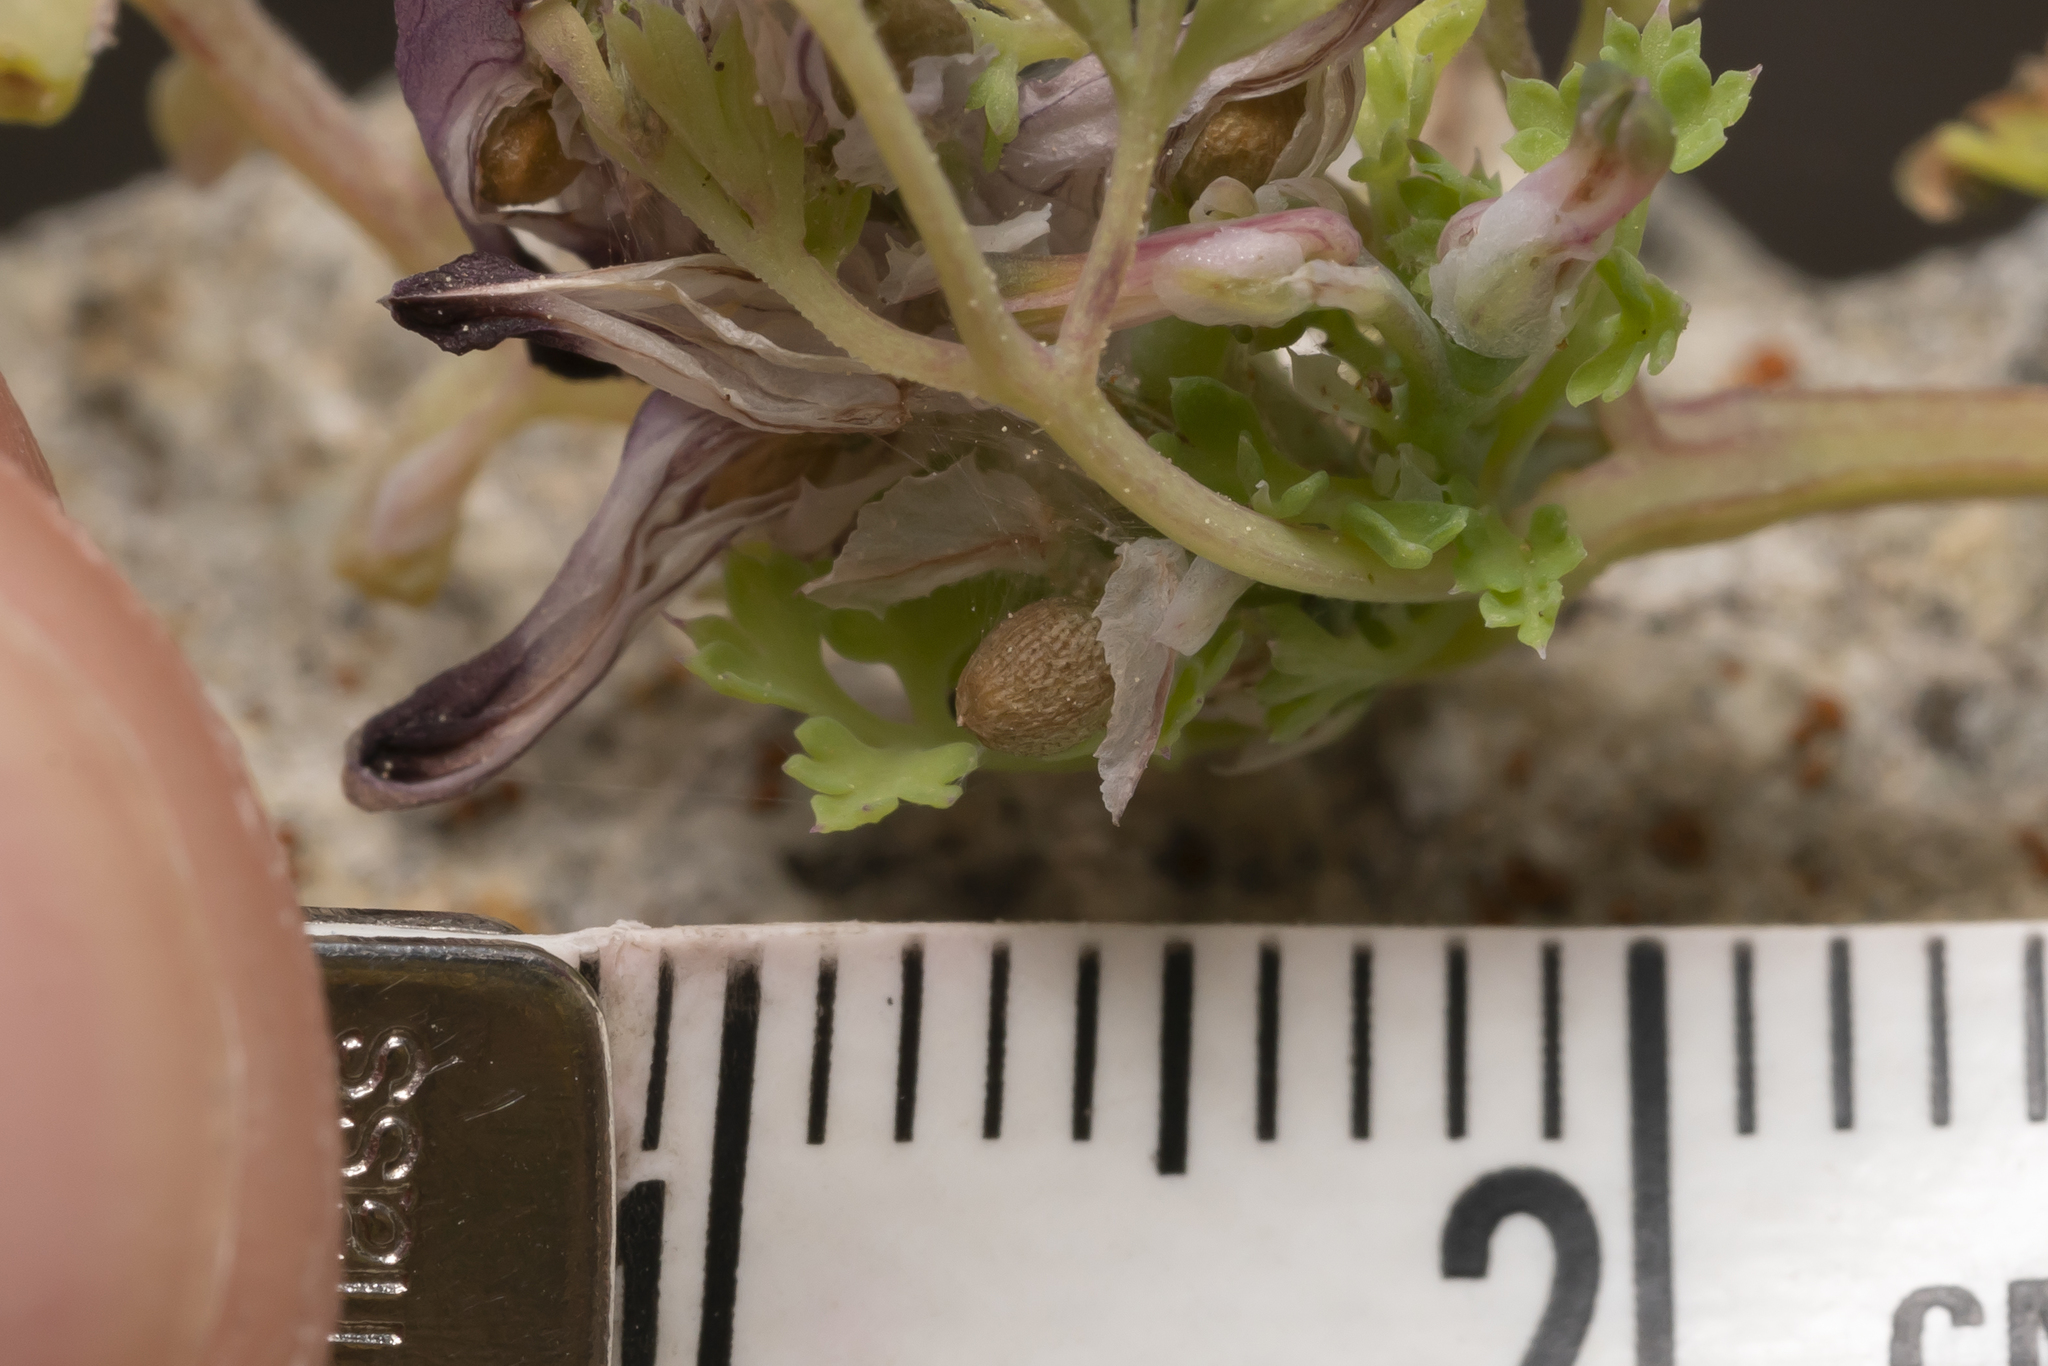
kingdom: Plantae
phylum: Tracheophyta
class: Magnoliopsida
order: Ranunculales
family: Papaveraceae
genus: Fumaria
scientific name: Fumaria petteri
